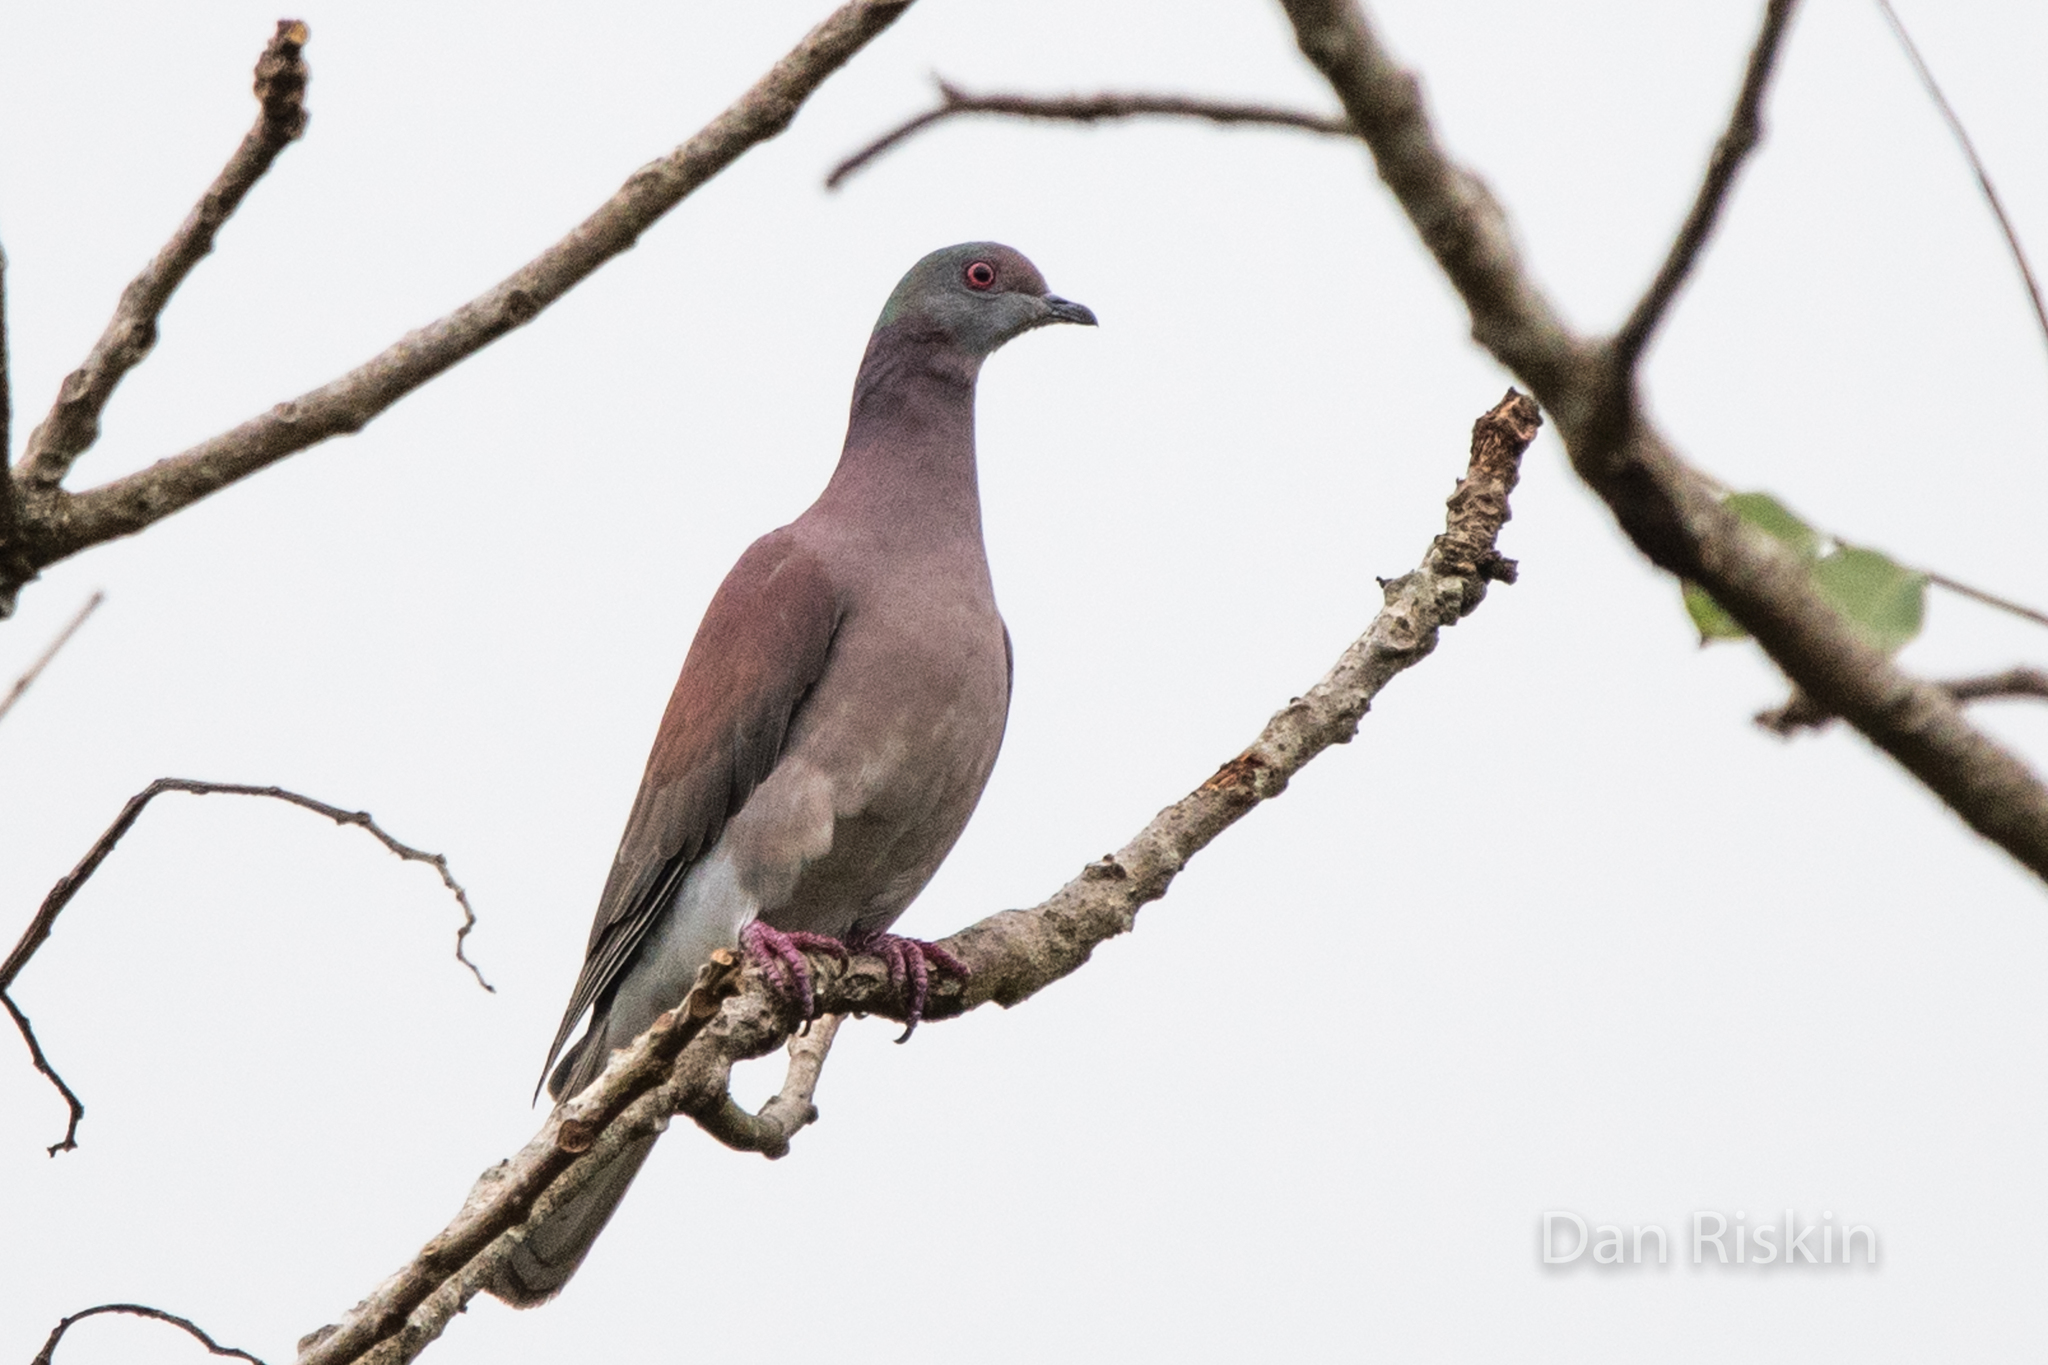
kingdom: Animalia
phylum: Chordata
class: Aves
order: Columbiformes
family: Columbidae
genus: Patagioenas
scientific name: Patagioenas cayennensis
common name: Pale-vented pigeon
